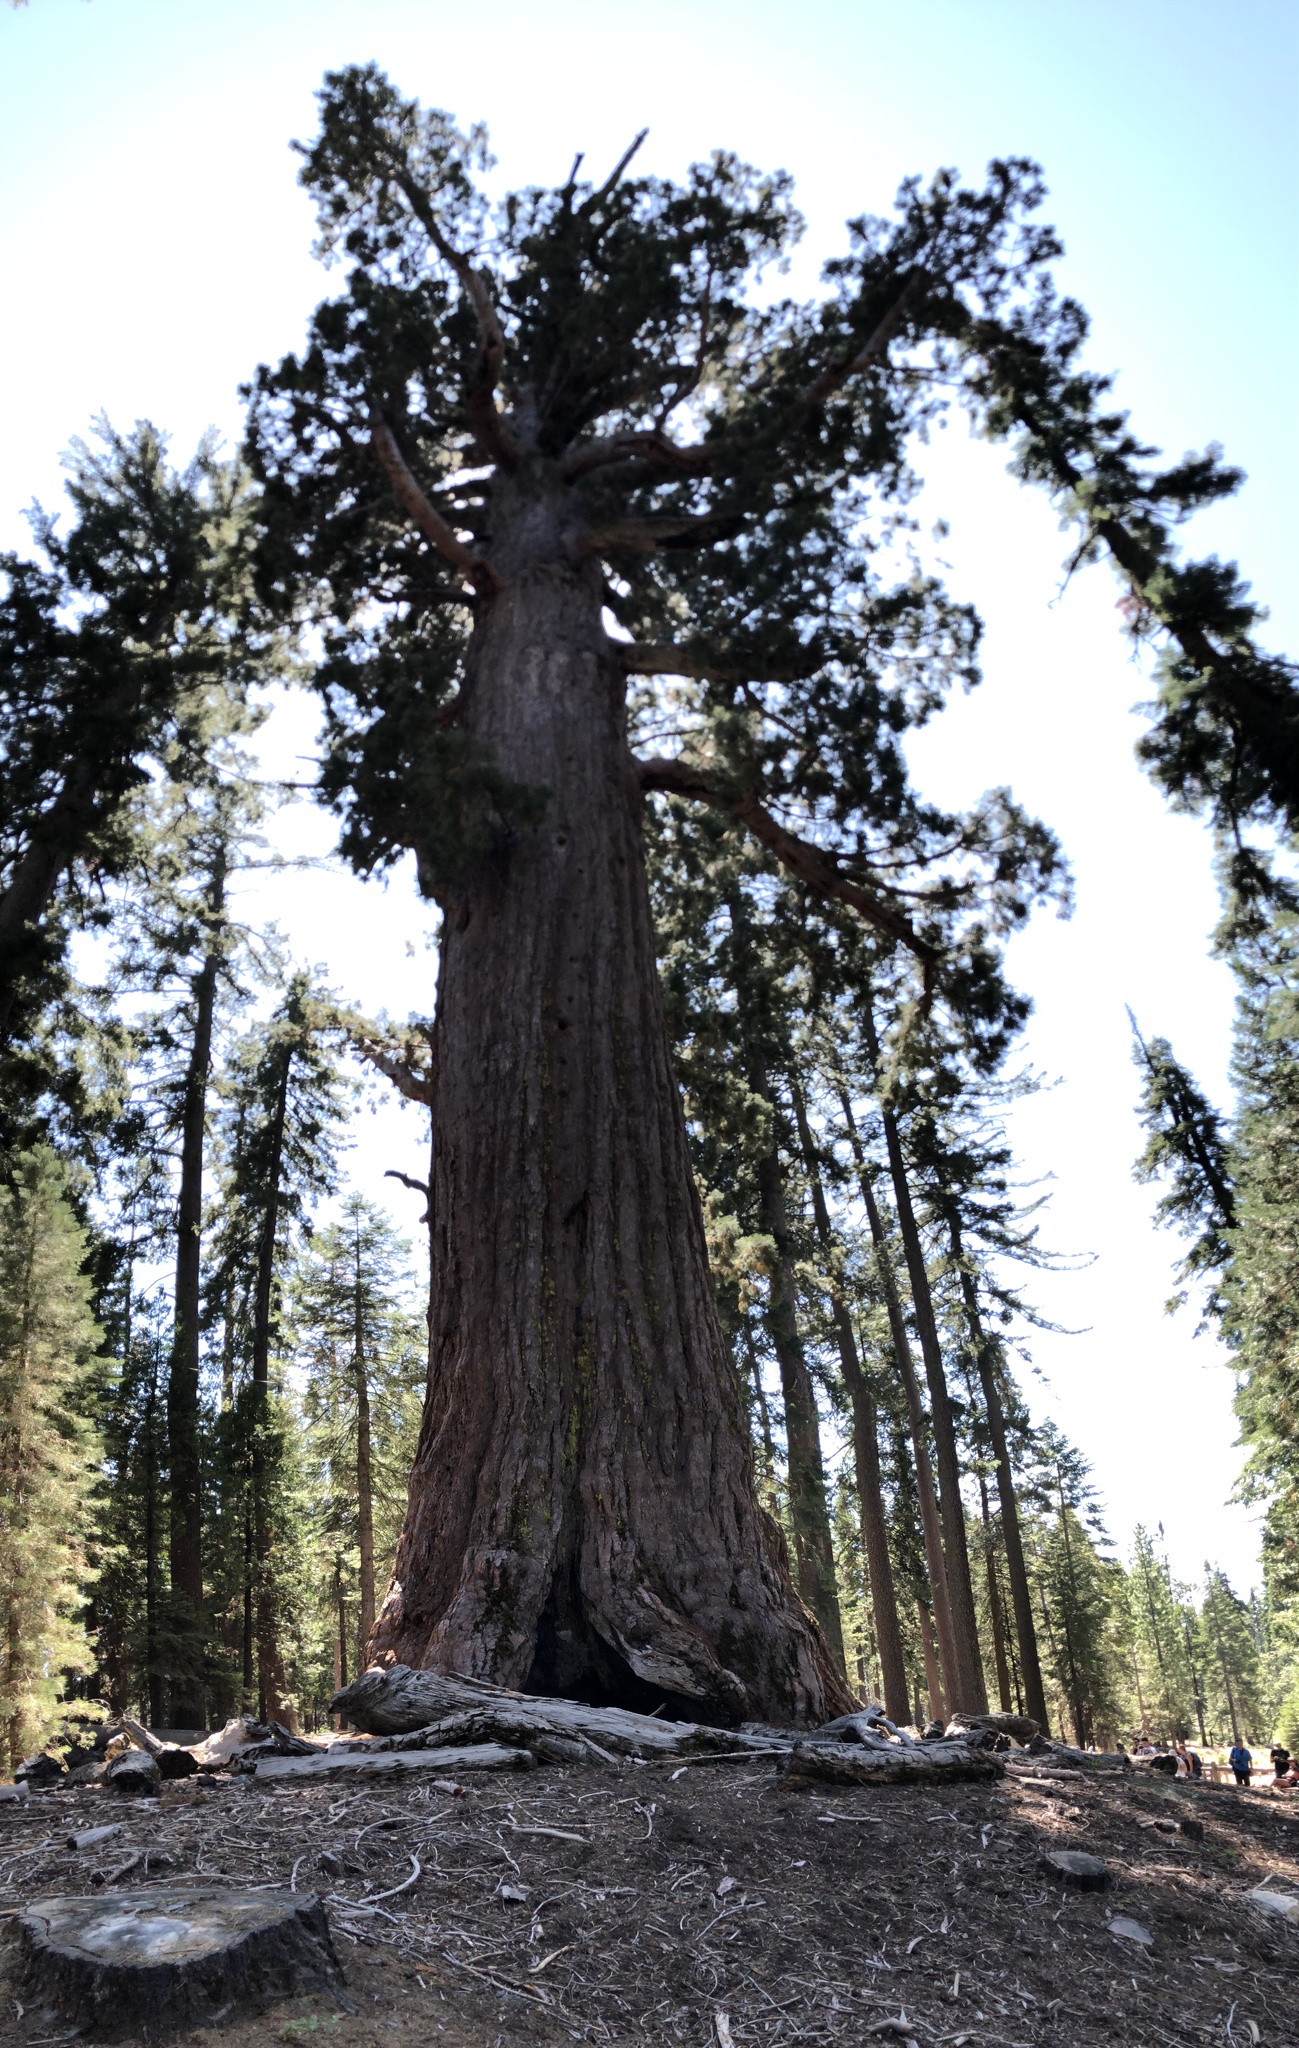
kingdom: Plantae
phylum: Tracheophyta
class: Pinopsida
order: Pinales
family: Cupressaceae
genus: Sequoiadendron
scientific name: Sequoiadendron giganteum
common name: Wellingtonia
